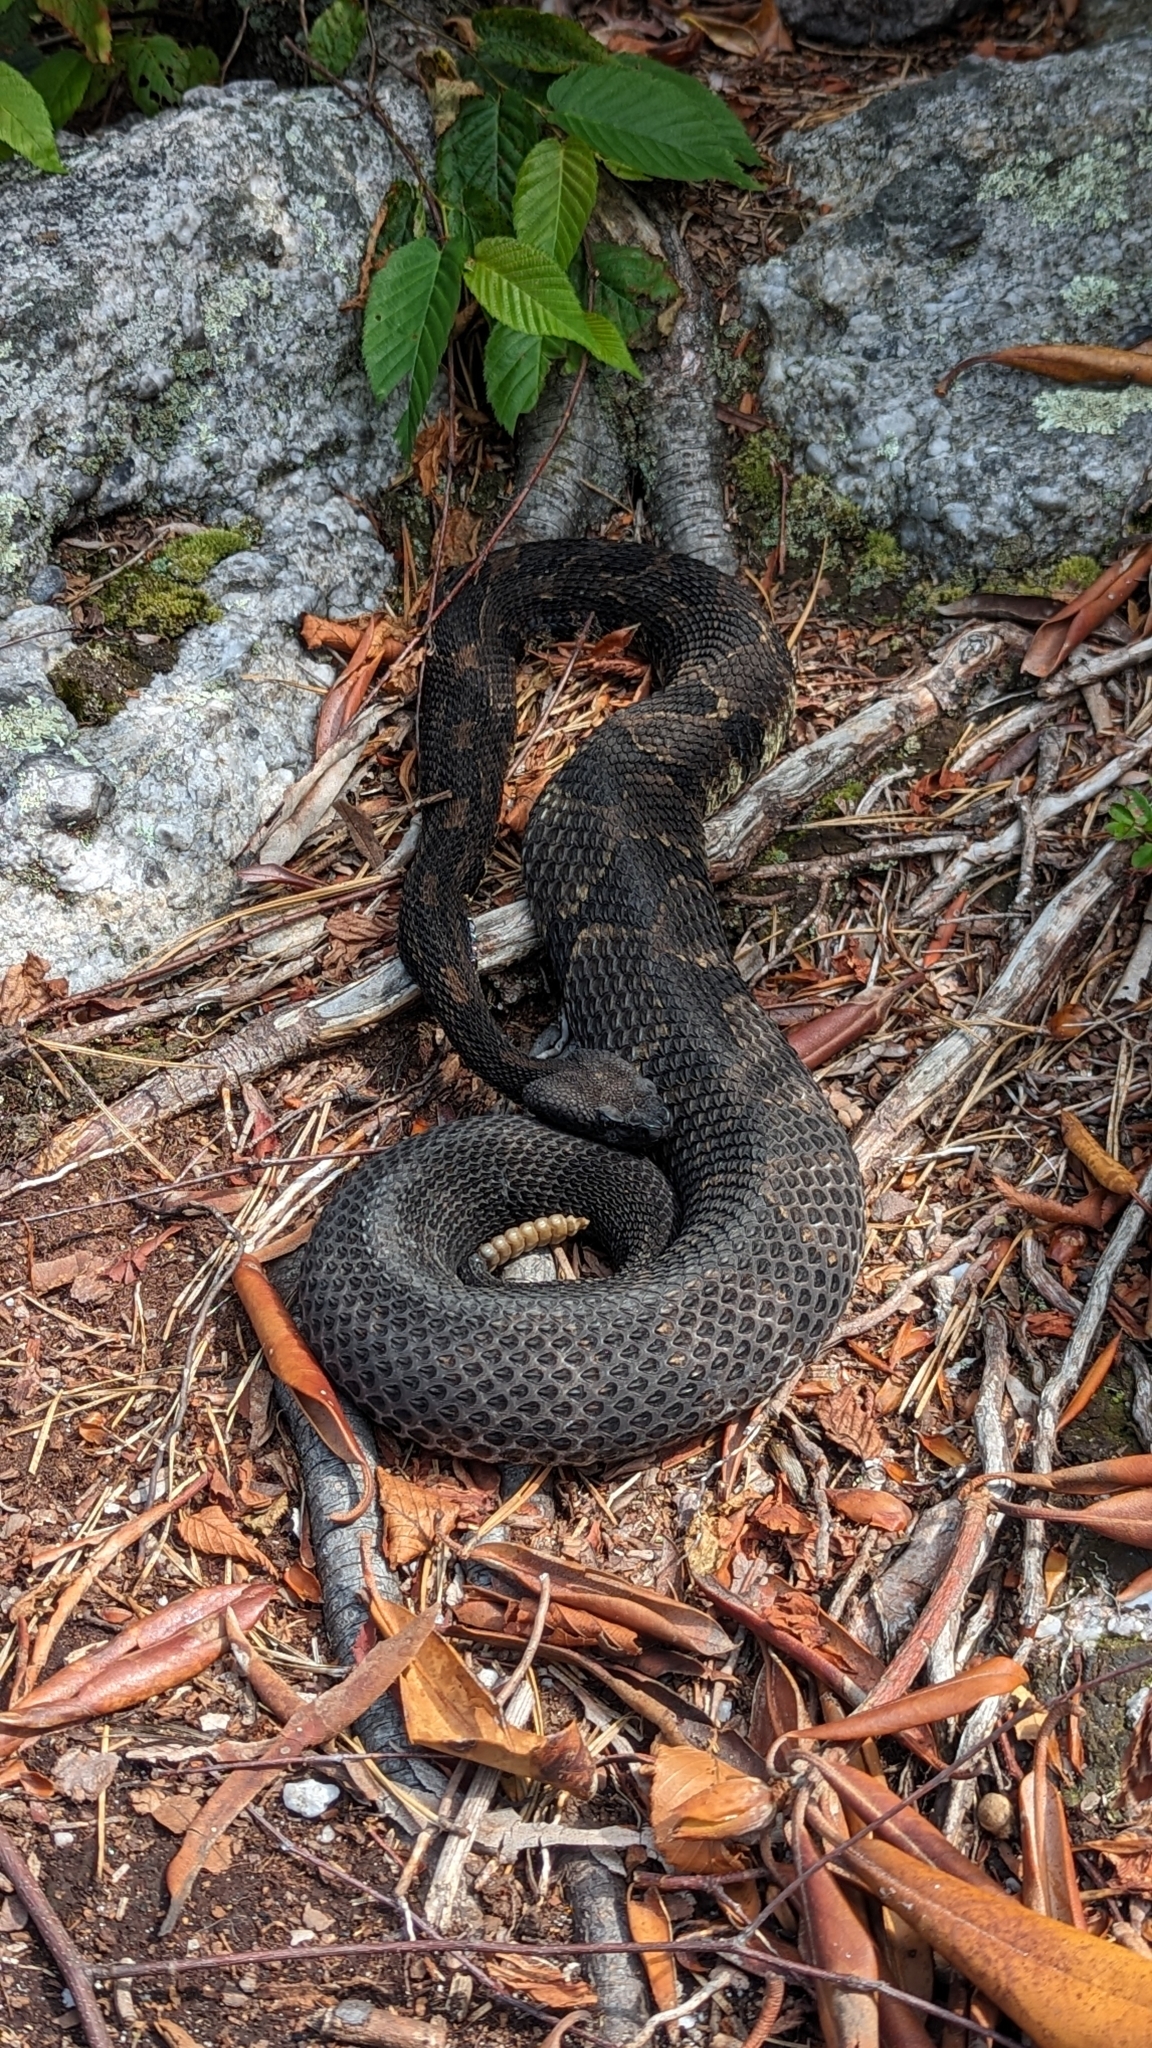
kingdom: Animalia
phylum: Chordata
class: Squamata
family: Viperidae
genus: Crotalus
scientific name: Crotalus horridus
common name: Timber rattlesnake
